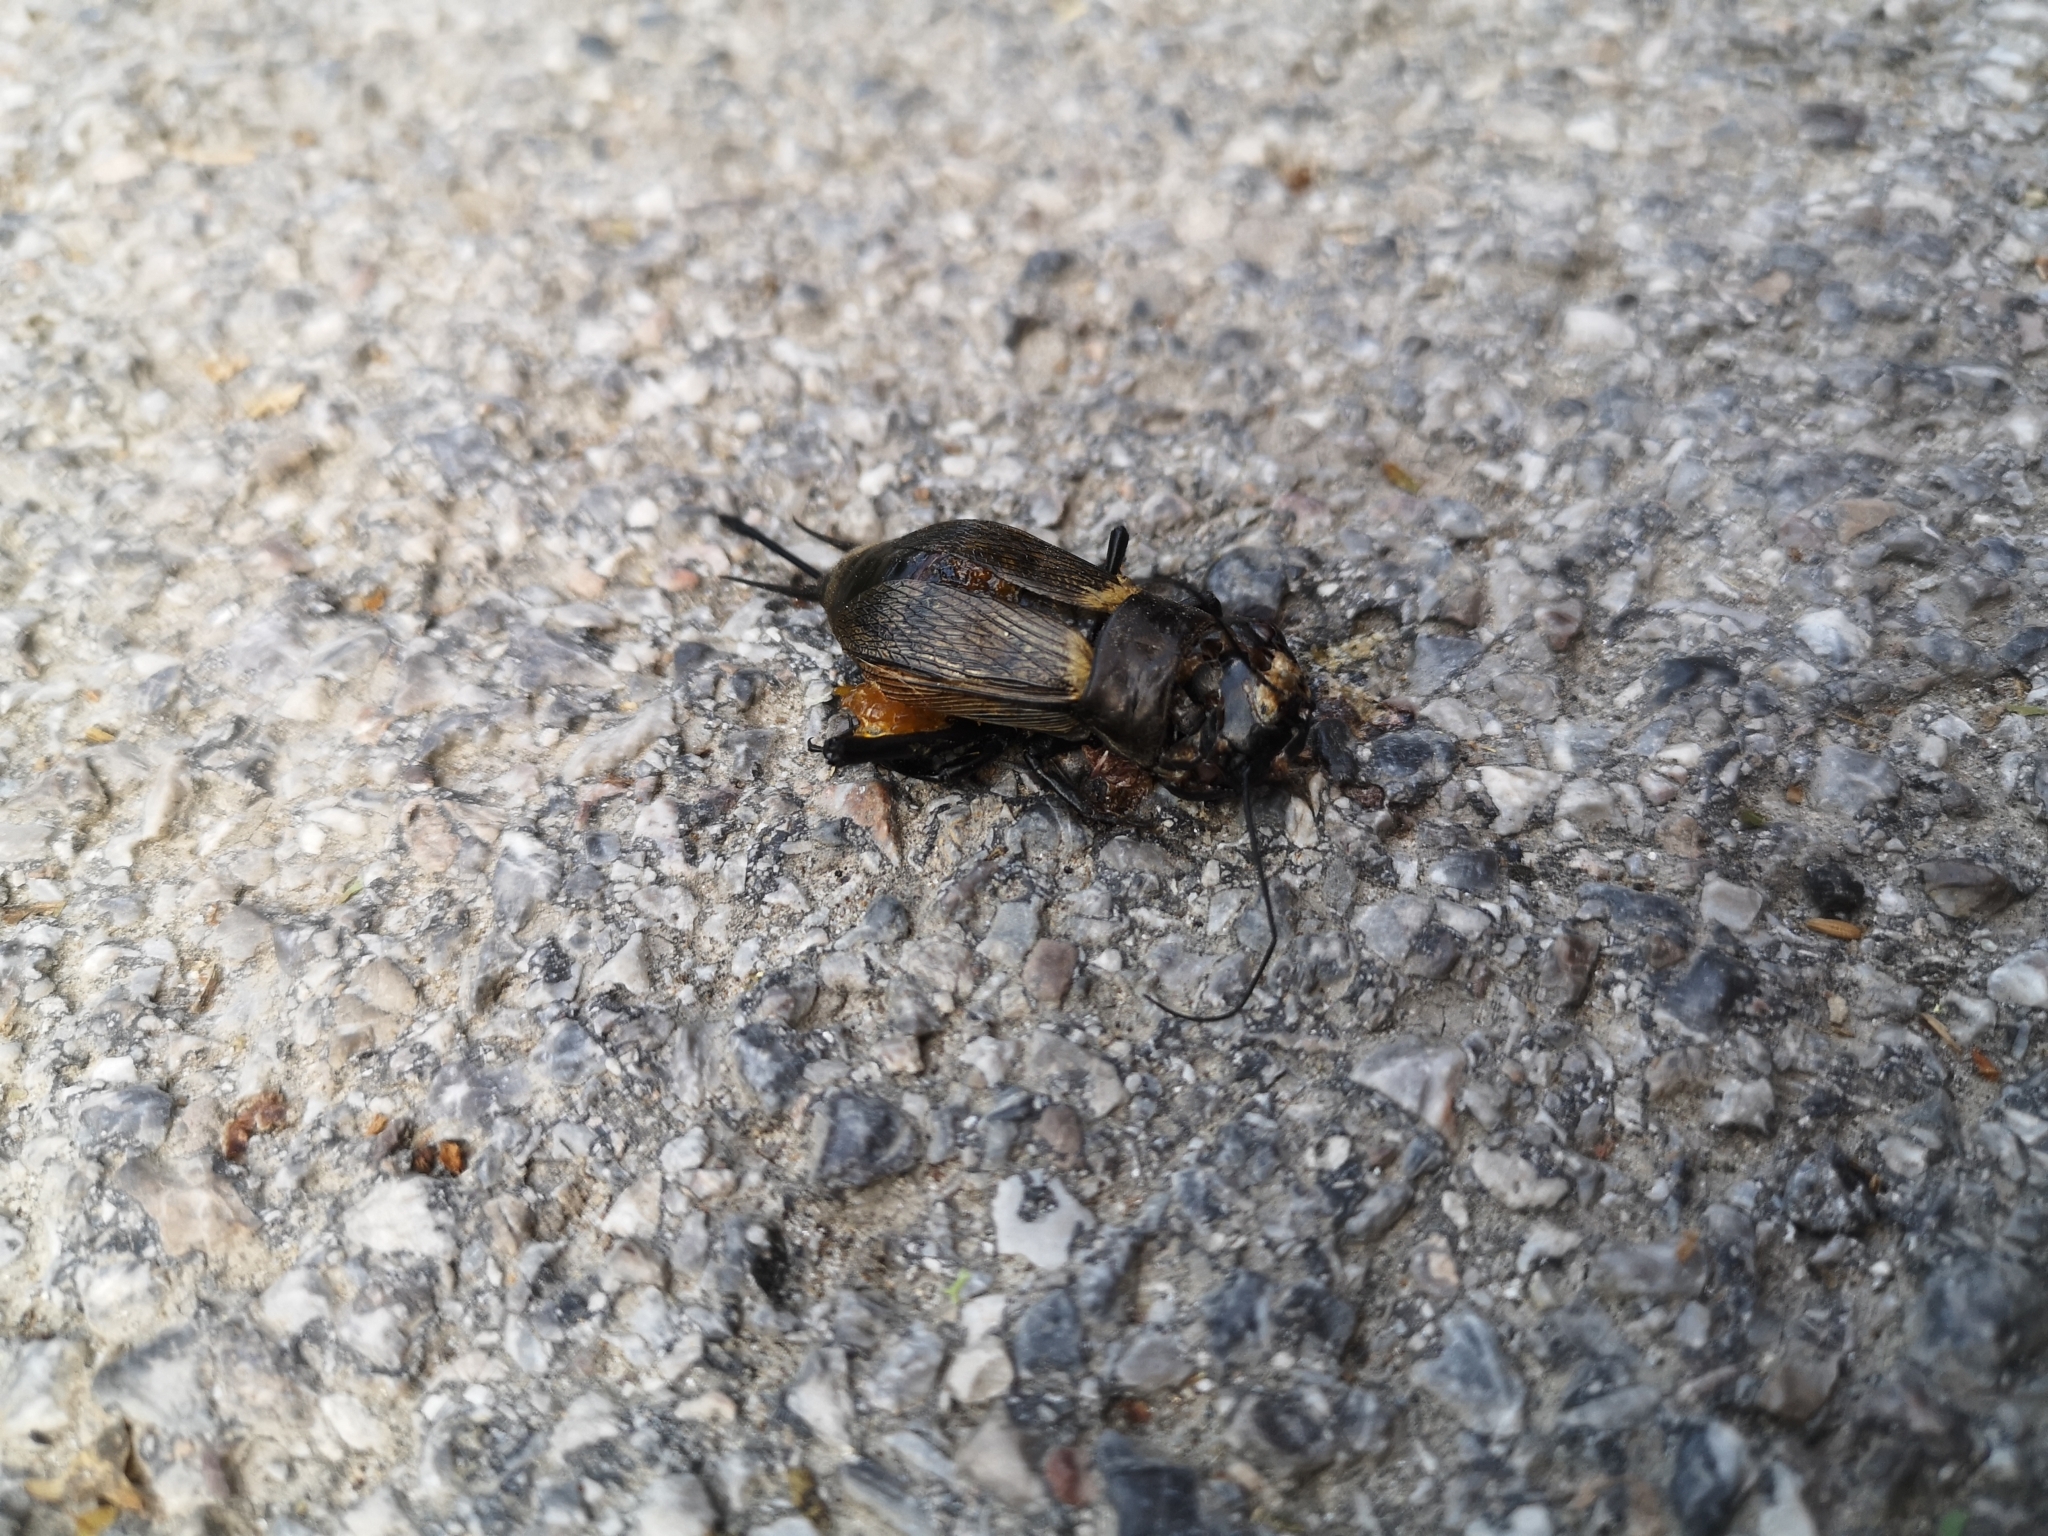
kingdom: Animalia
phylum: Arthropoda
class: Insecta
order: Orthoptera
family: Gryllidae
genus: Gryllus
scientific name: Gryllus campestris
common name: Field cricket
